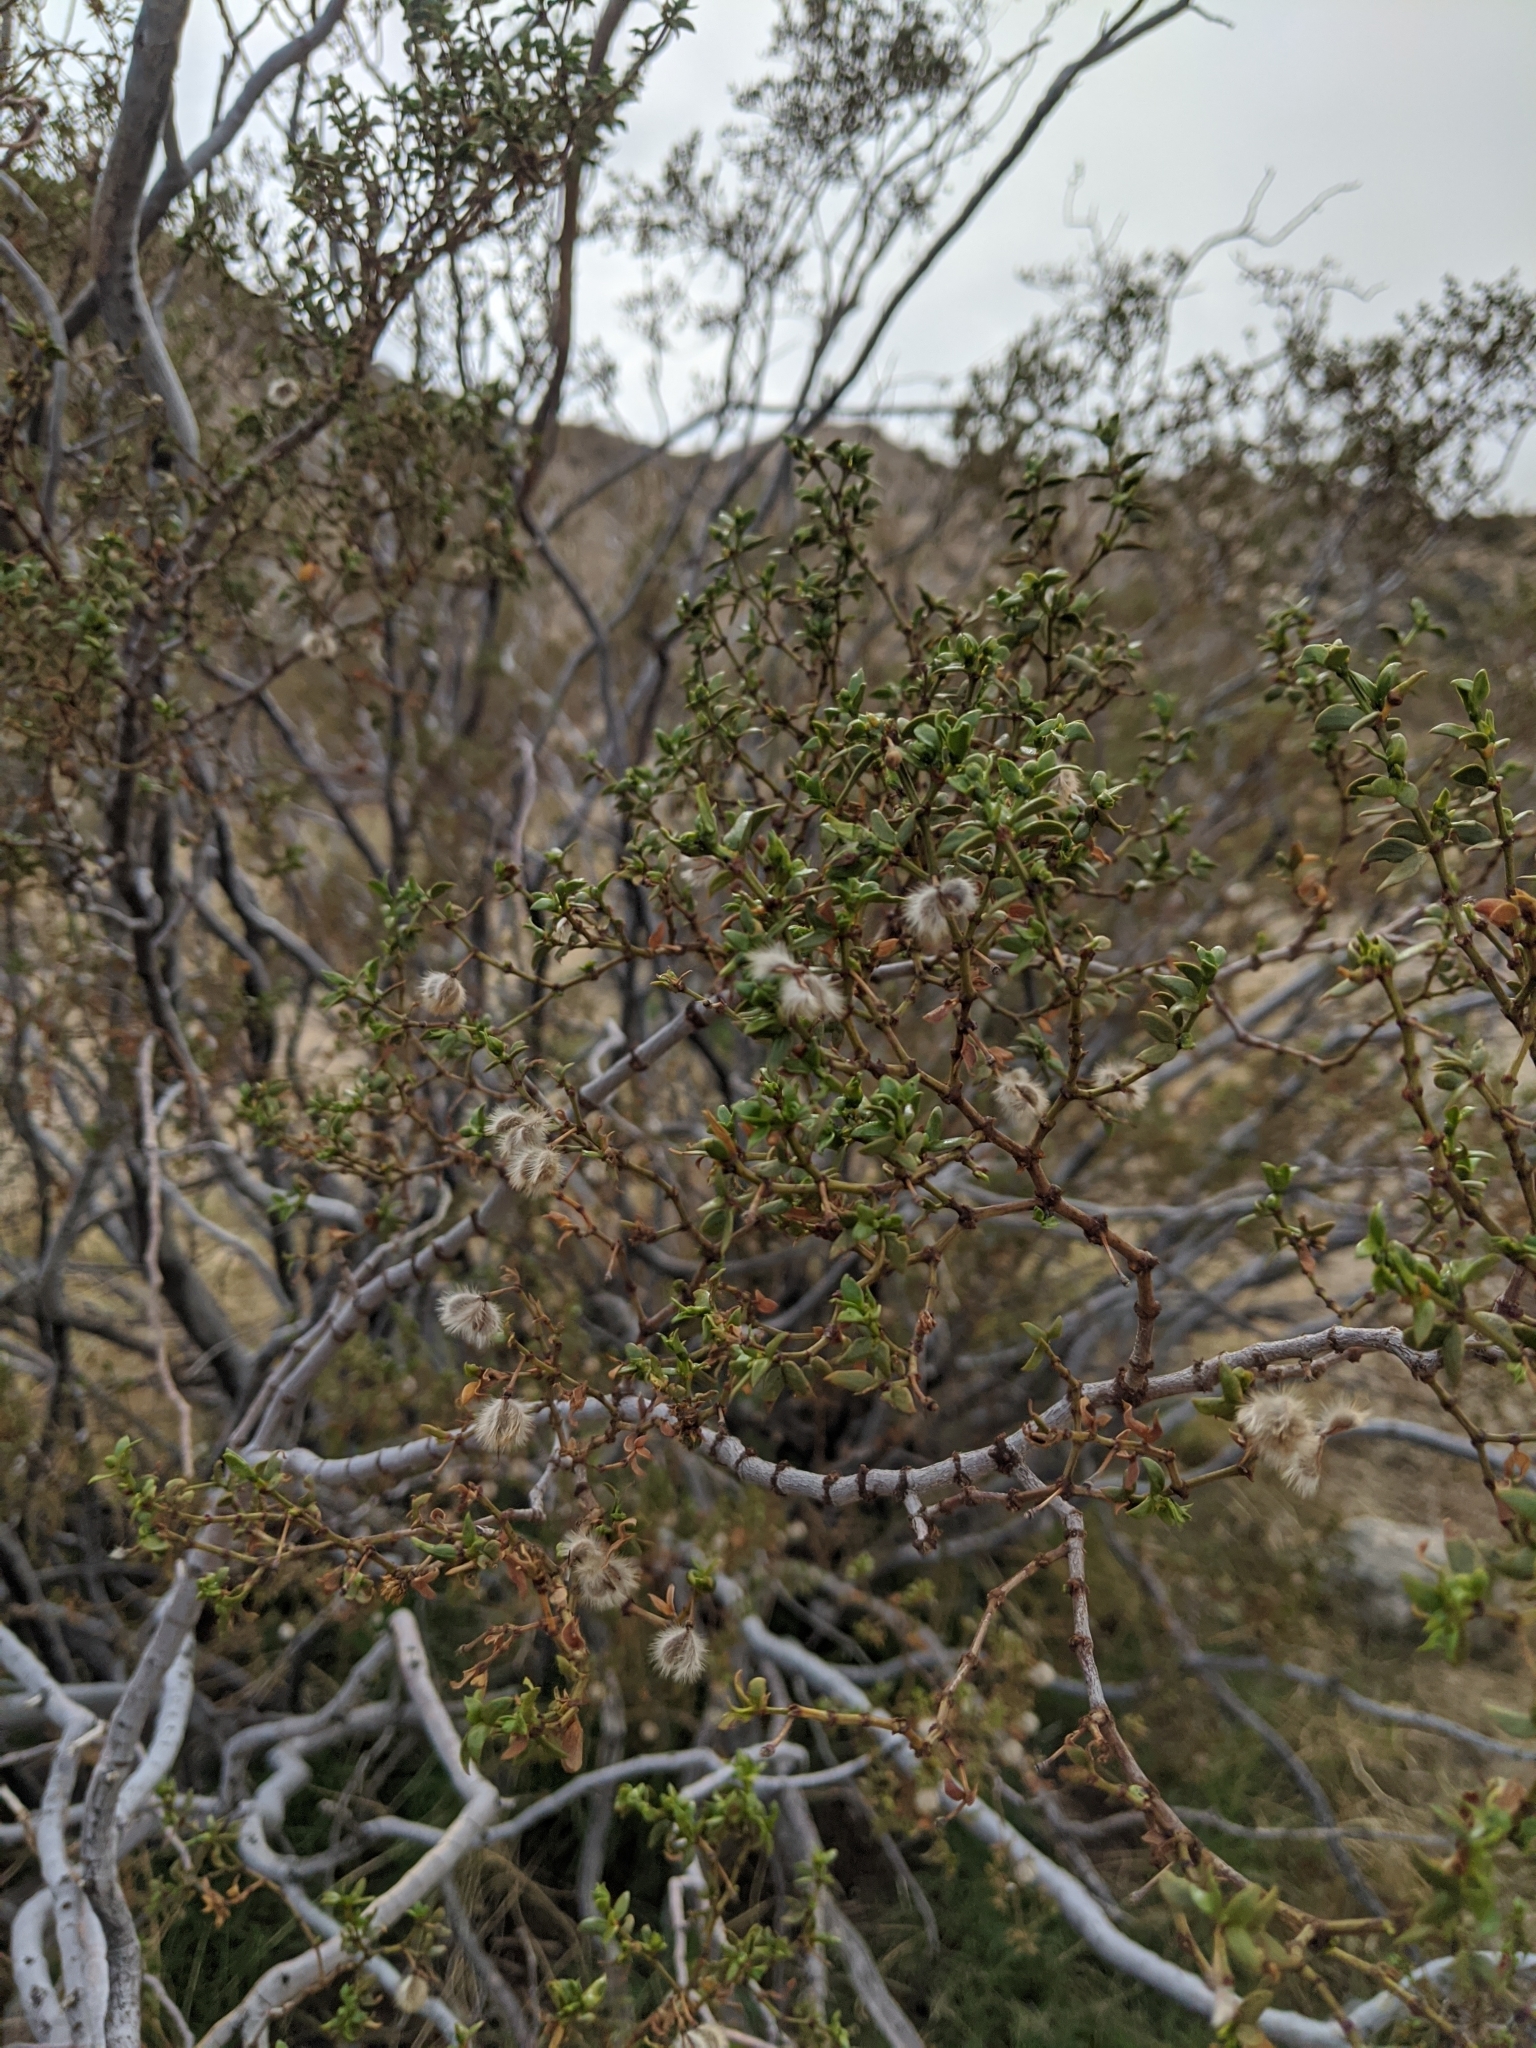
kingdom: Plantae
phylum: Tracheophyta
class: Magnoliopsida
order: Zygophyllales
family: Zygophyllaceae
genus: Larrea
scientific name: Larrea tridentata
